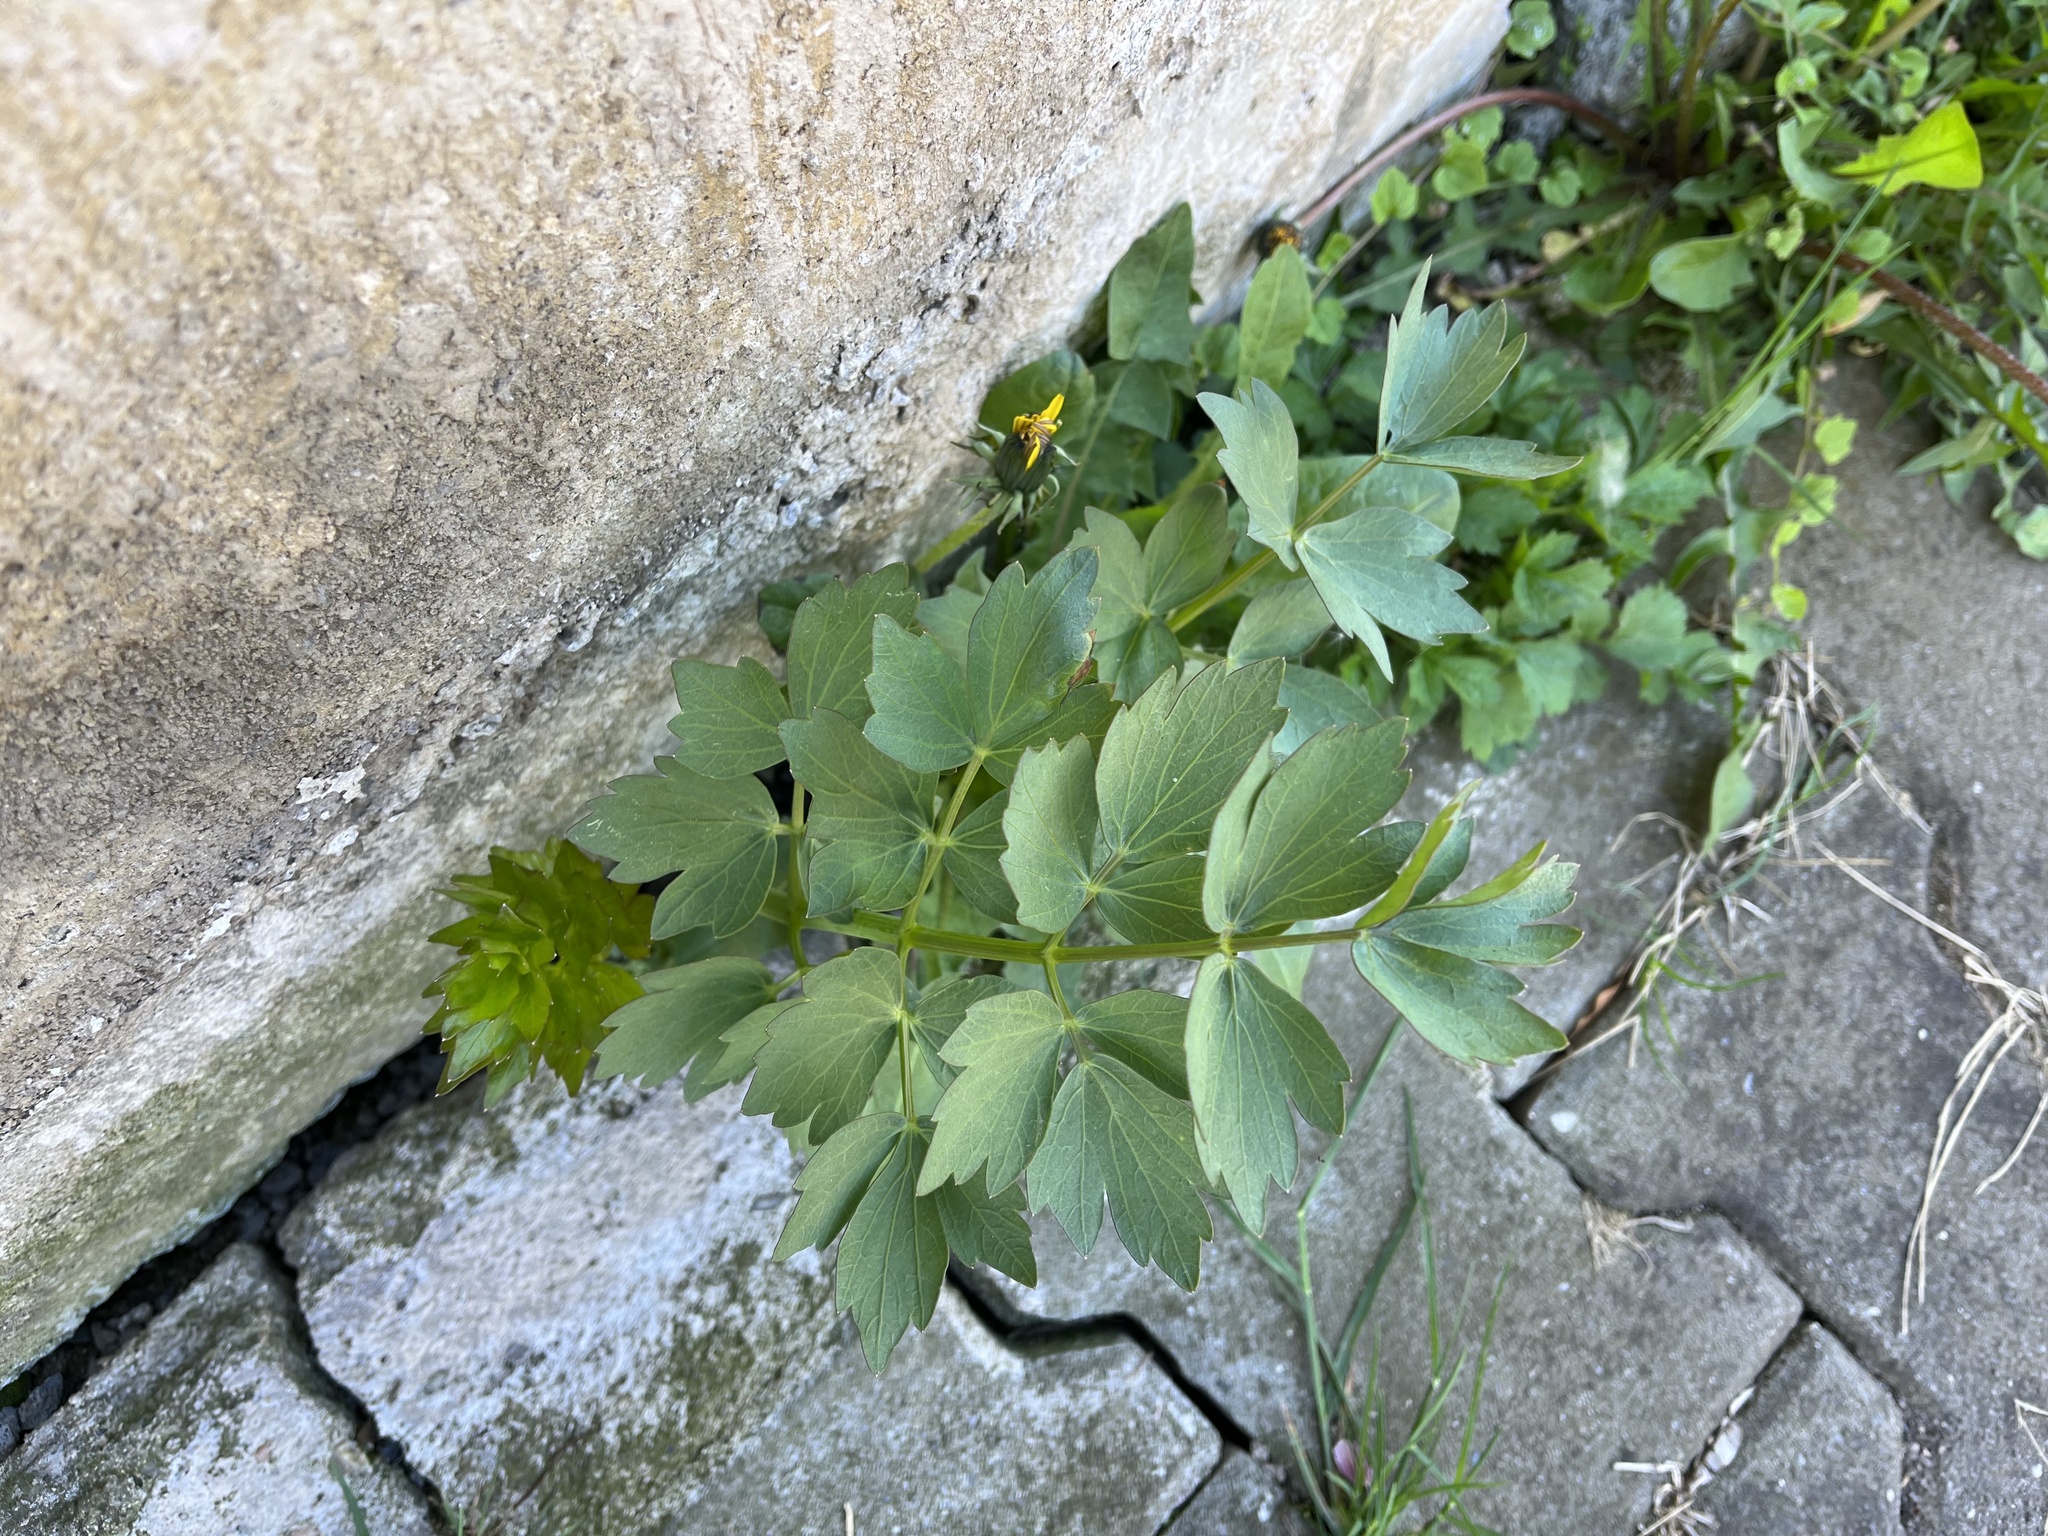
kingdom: Plantae
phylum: Tracheophyta
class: Magnoliopsida
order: Apiales
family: Apiaceae
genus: Levisticum
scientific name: Levisticum officinale
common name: Lovage
